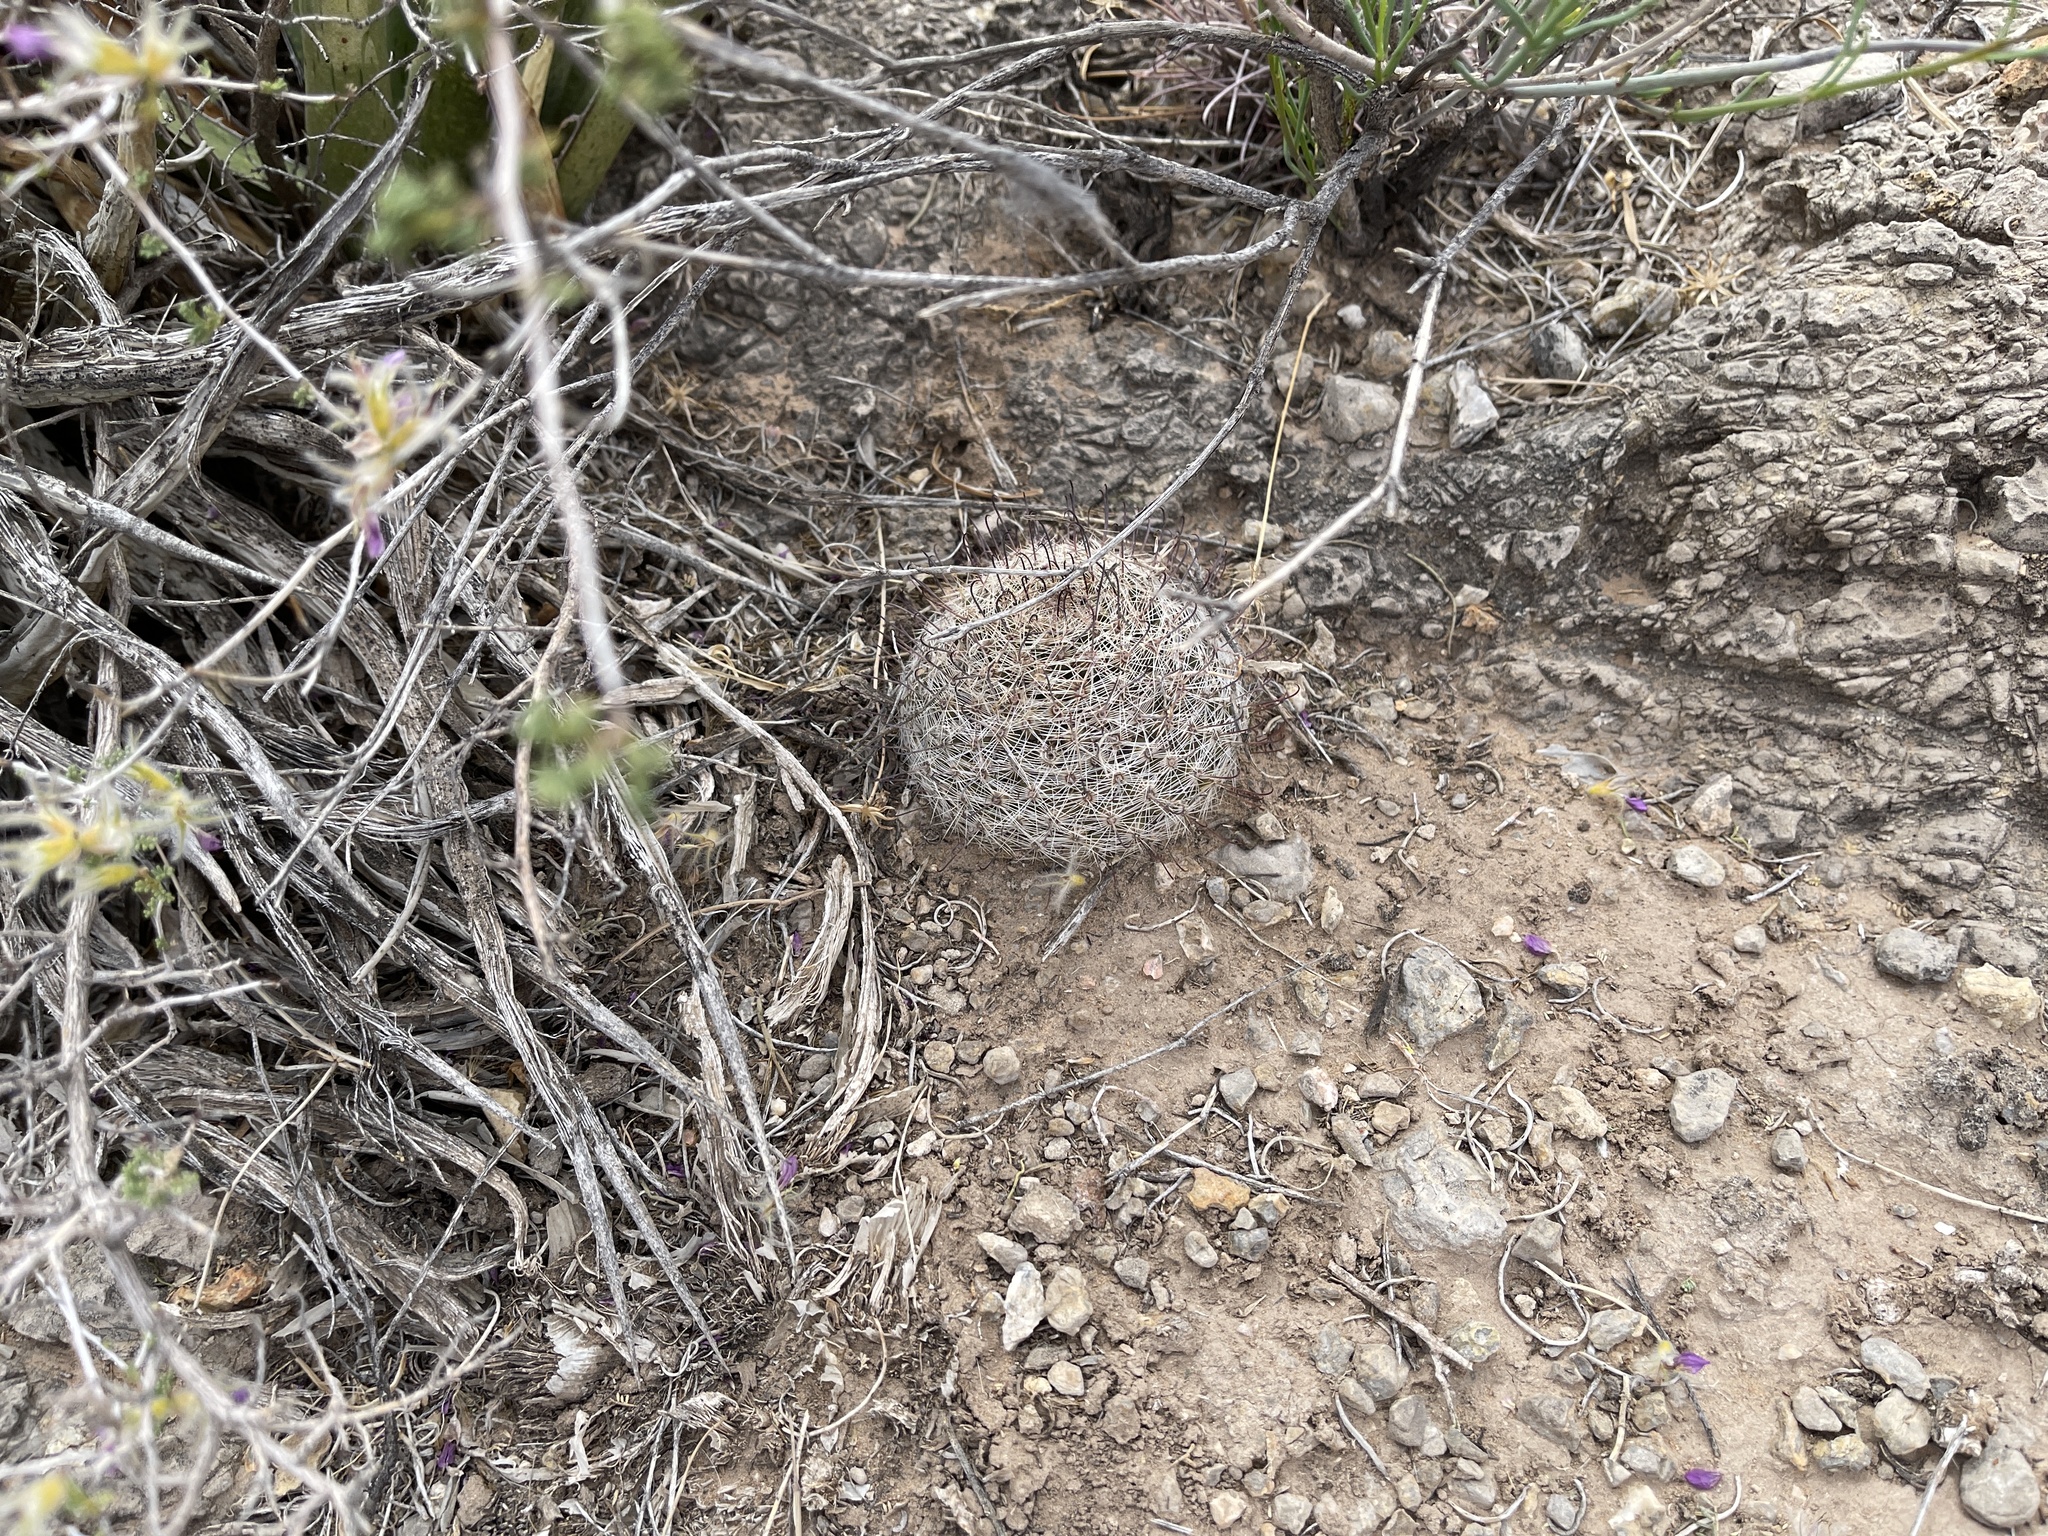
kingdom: Plantae
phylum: Tracheophyta
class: Magnoliopsida
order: Caryophyllales
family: Cactaceae
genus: Cochemiea
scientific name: Cochemiea grahamii
